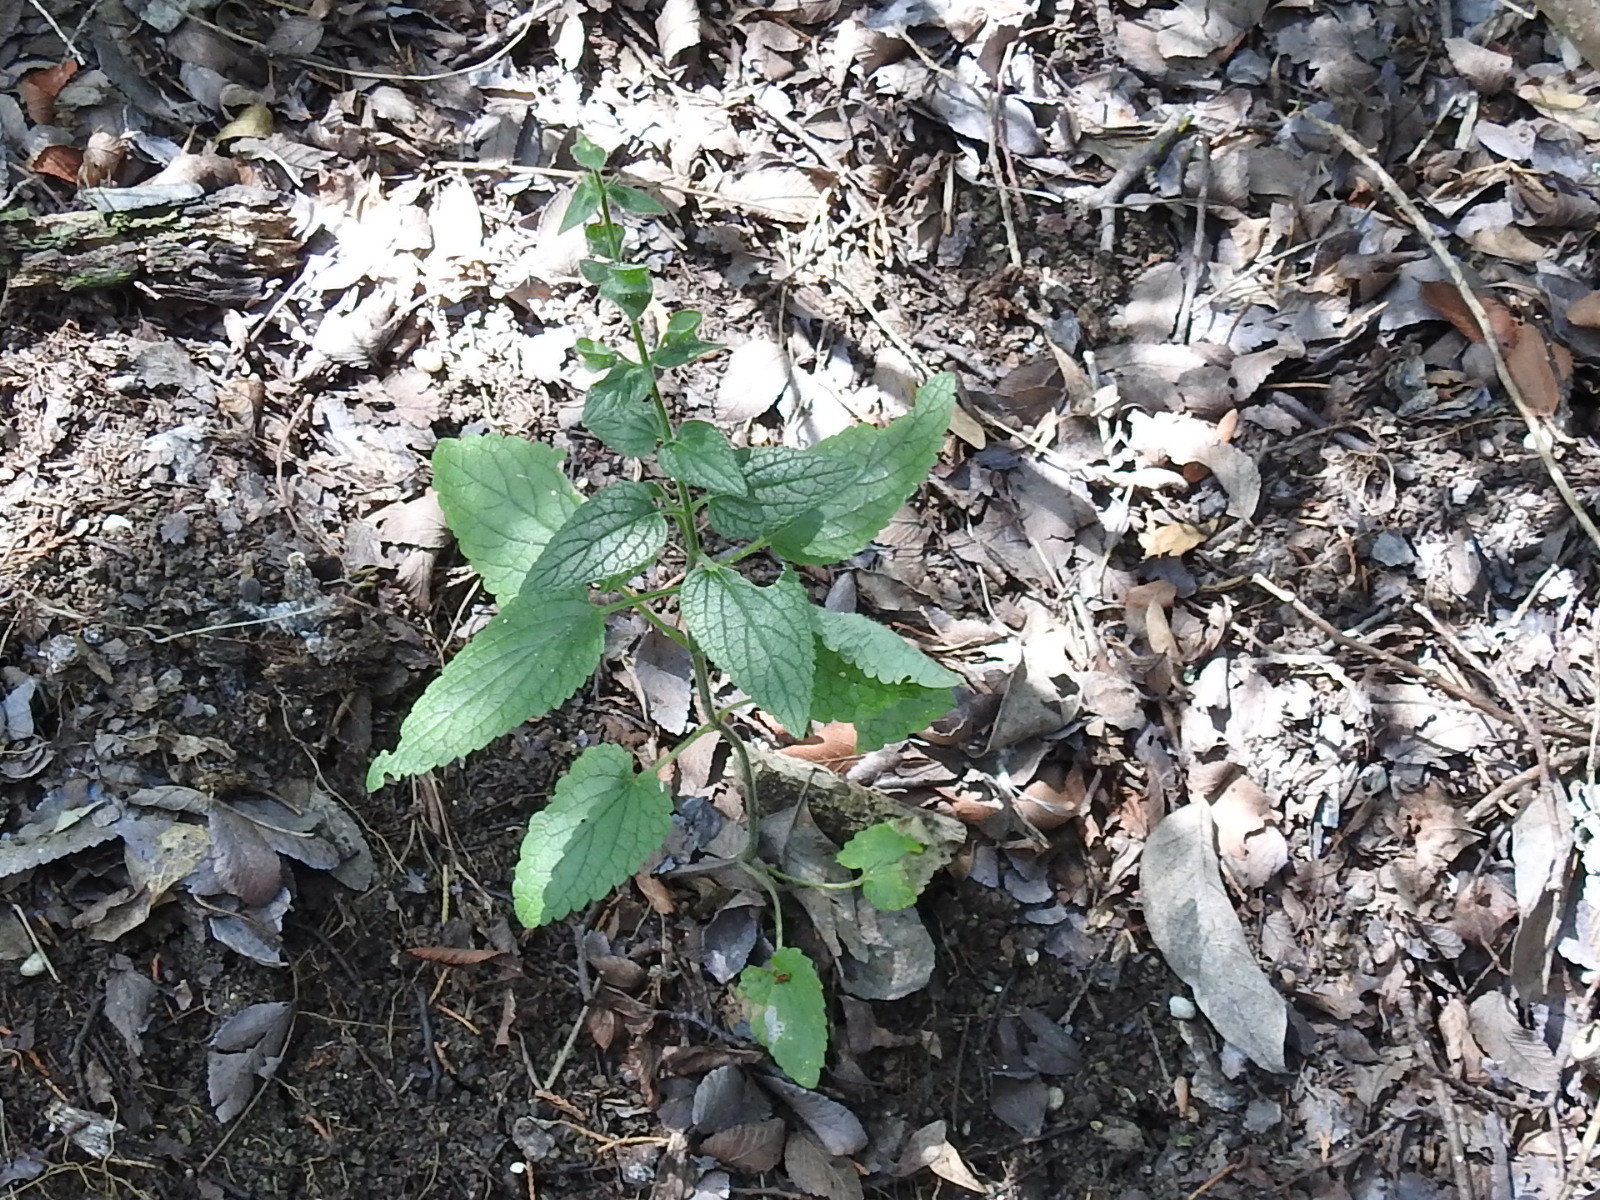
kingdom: Plantae
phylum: Tracheophyta
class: Magnoliopsida
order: Lamiales
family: Lamiaceae
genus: Scutellaria
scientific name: Scutellaria ovata
